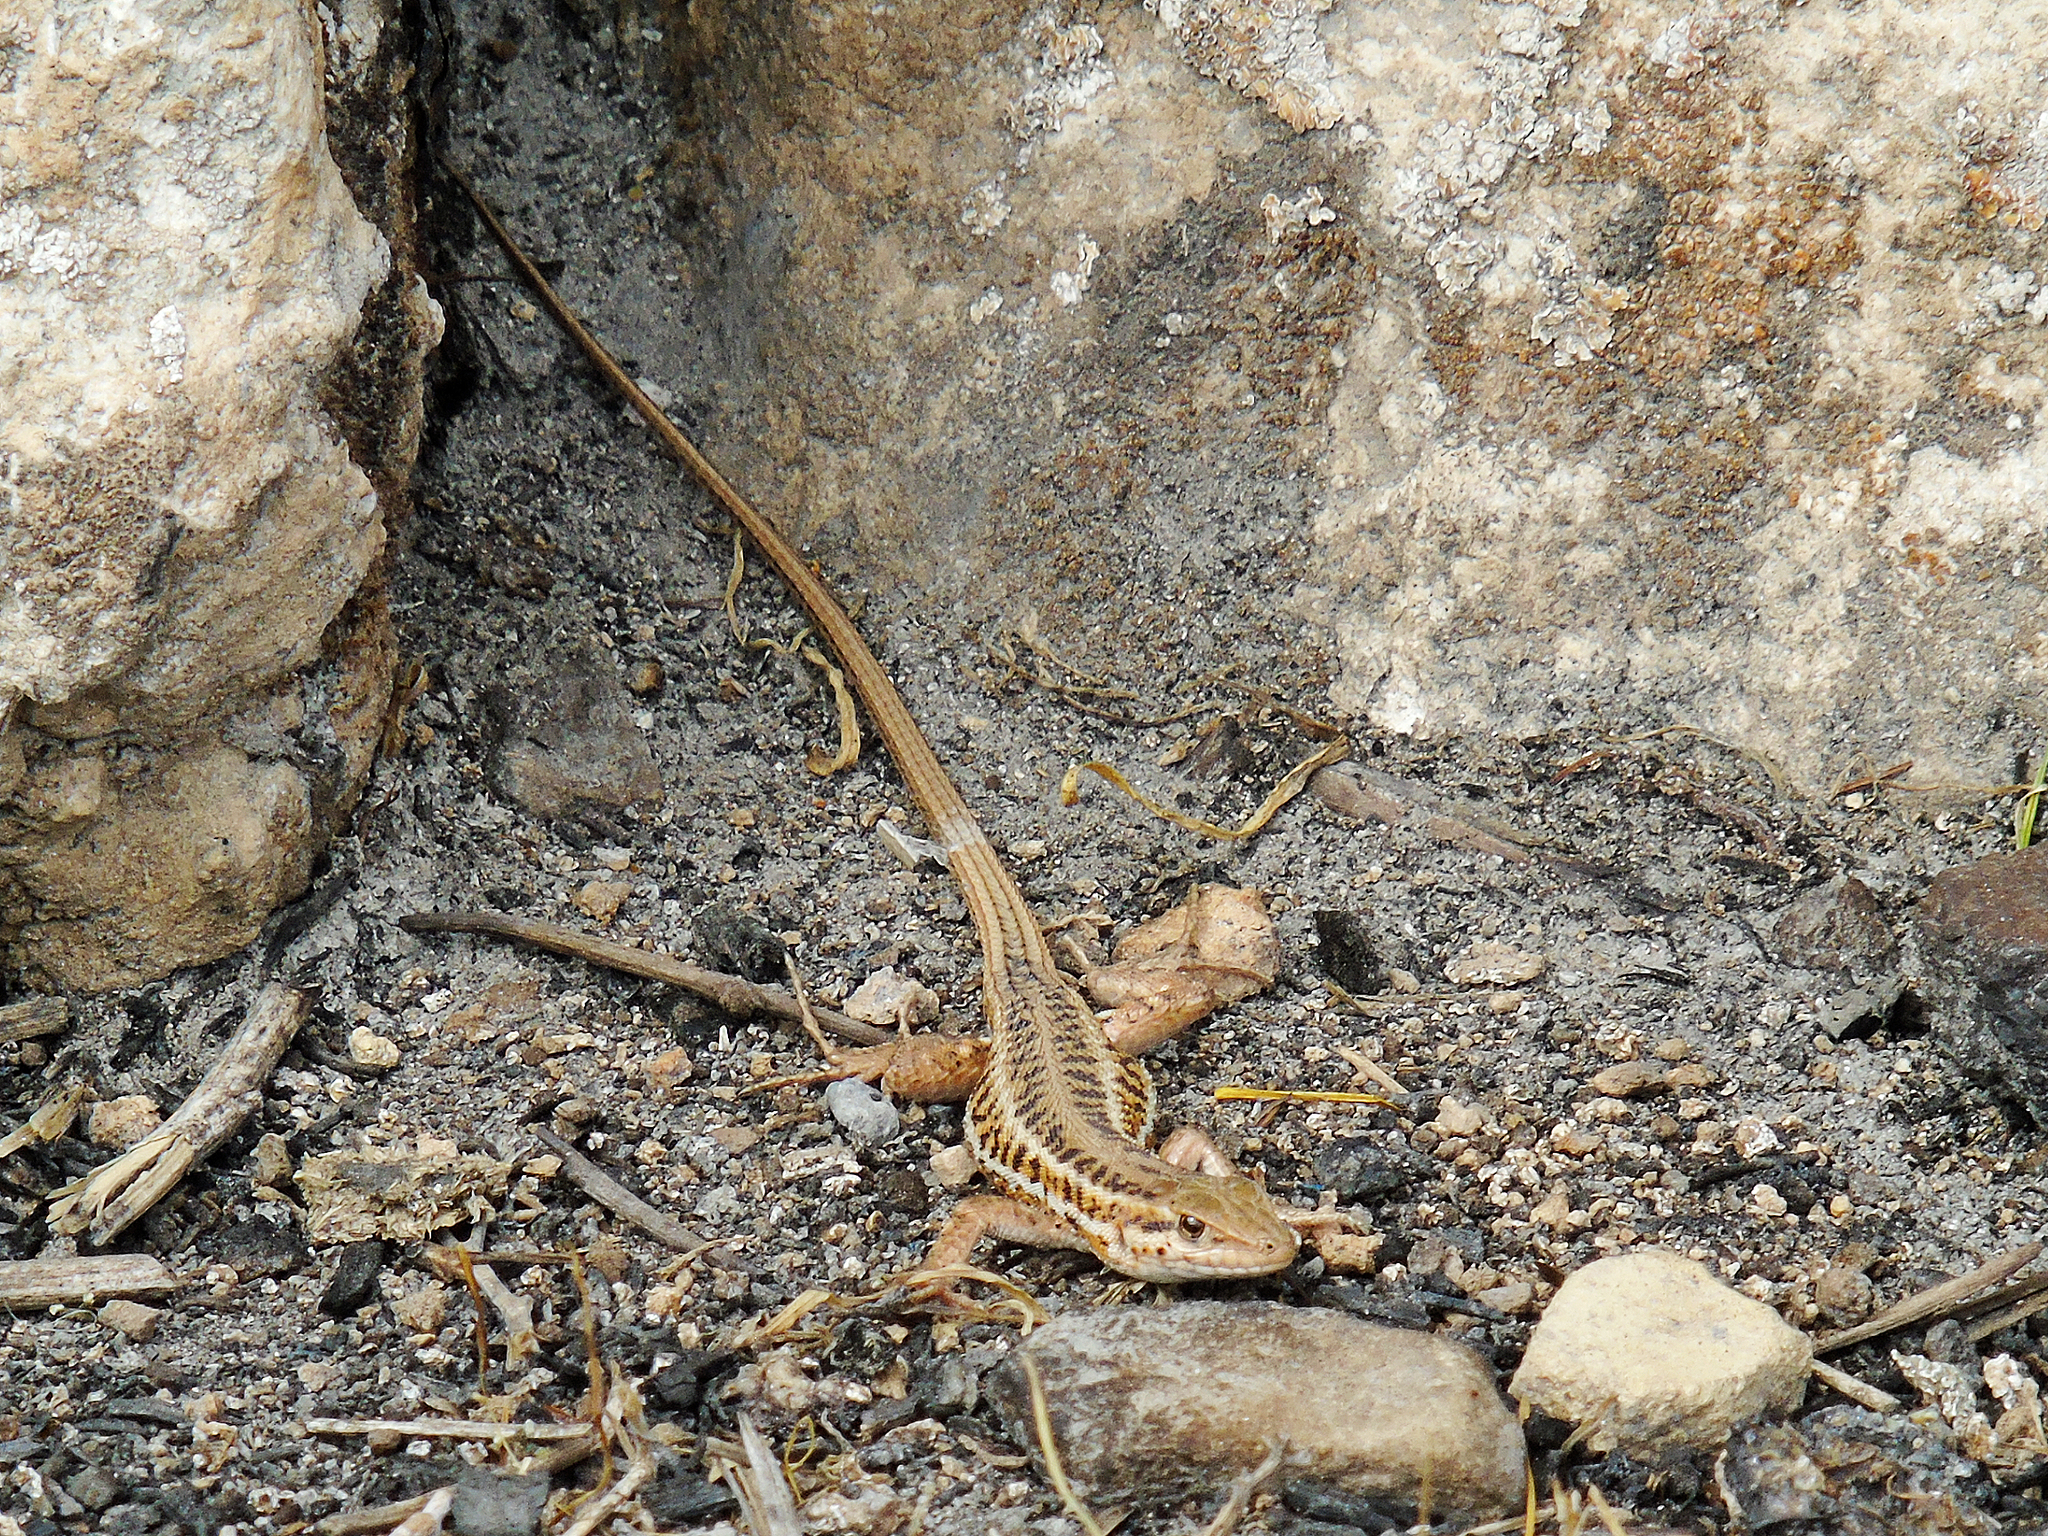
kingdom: Animalia
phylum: Chordata
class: Squamata
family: Lacertidae
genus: Ophisops
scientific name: Ophisops elegans
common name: Snake-eyed lizard
